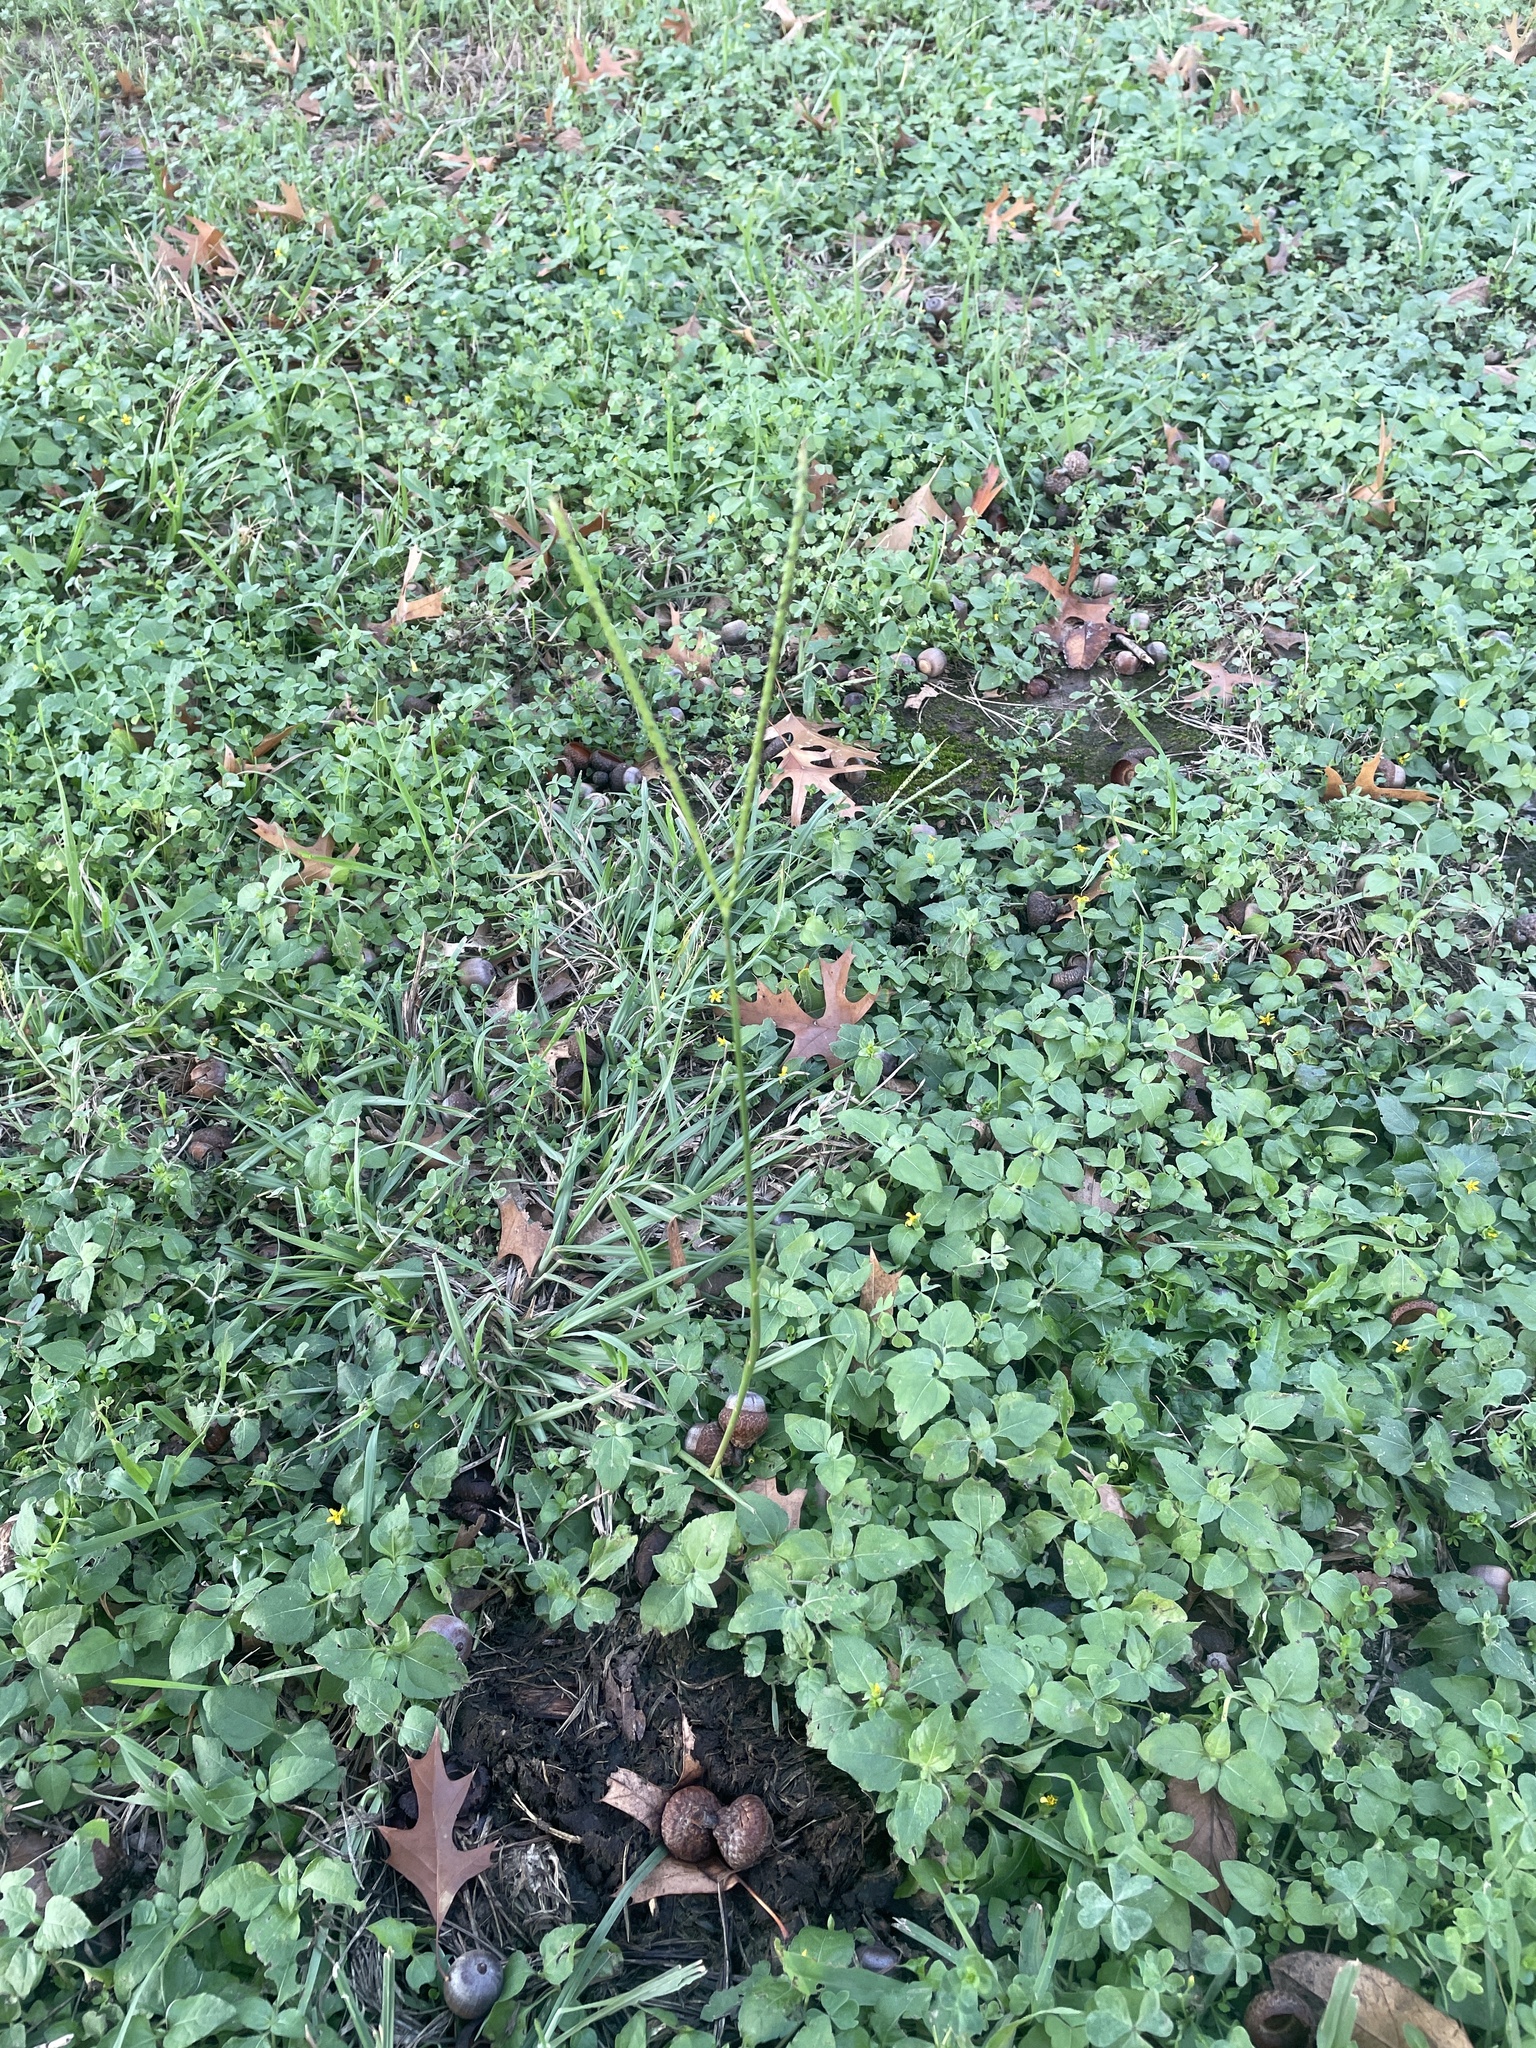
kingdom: Plantae
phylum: Tracheophyta
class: Liliopsida
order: Poales
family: Poaceae
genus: Paspalum
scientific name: Paspalum notatum
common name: Bahiagrass
